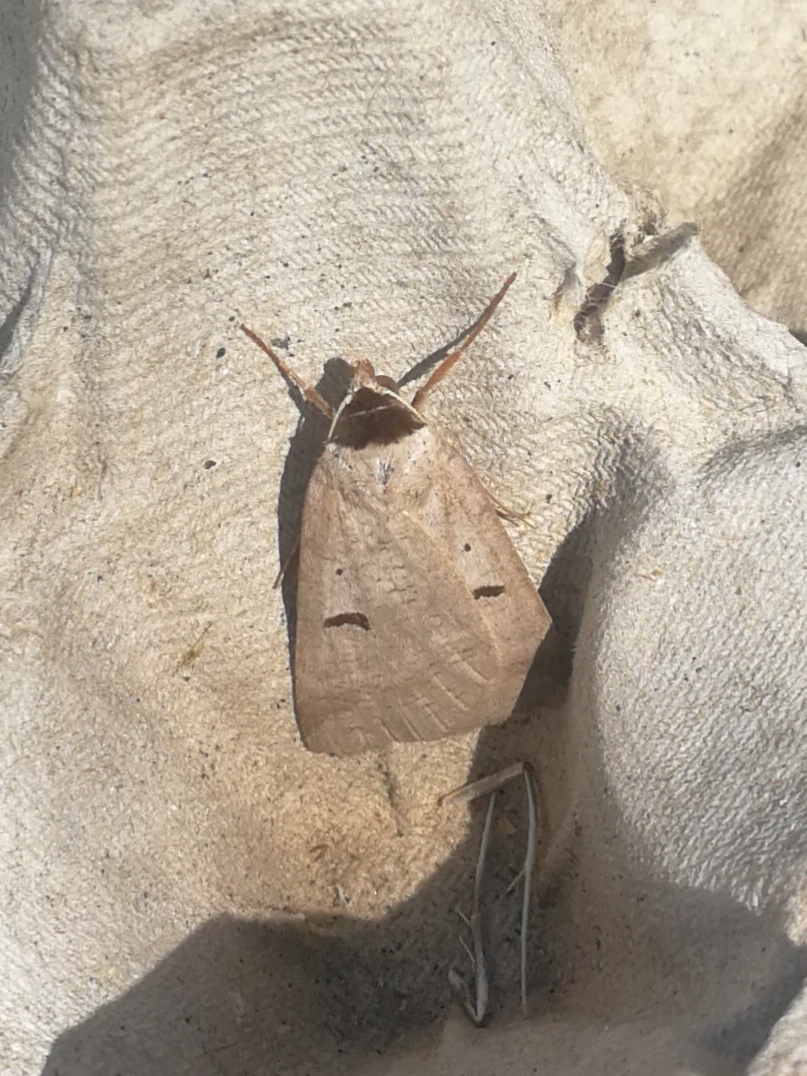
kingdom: Animalia
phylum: Arthropoda
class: Insecta
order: Lepidoptera
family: Erebidae
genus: Lygephila
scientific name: Lygephila craccae
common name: Scarce blackneck
